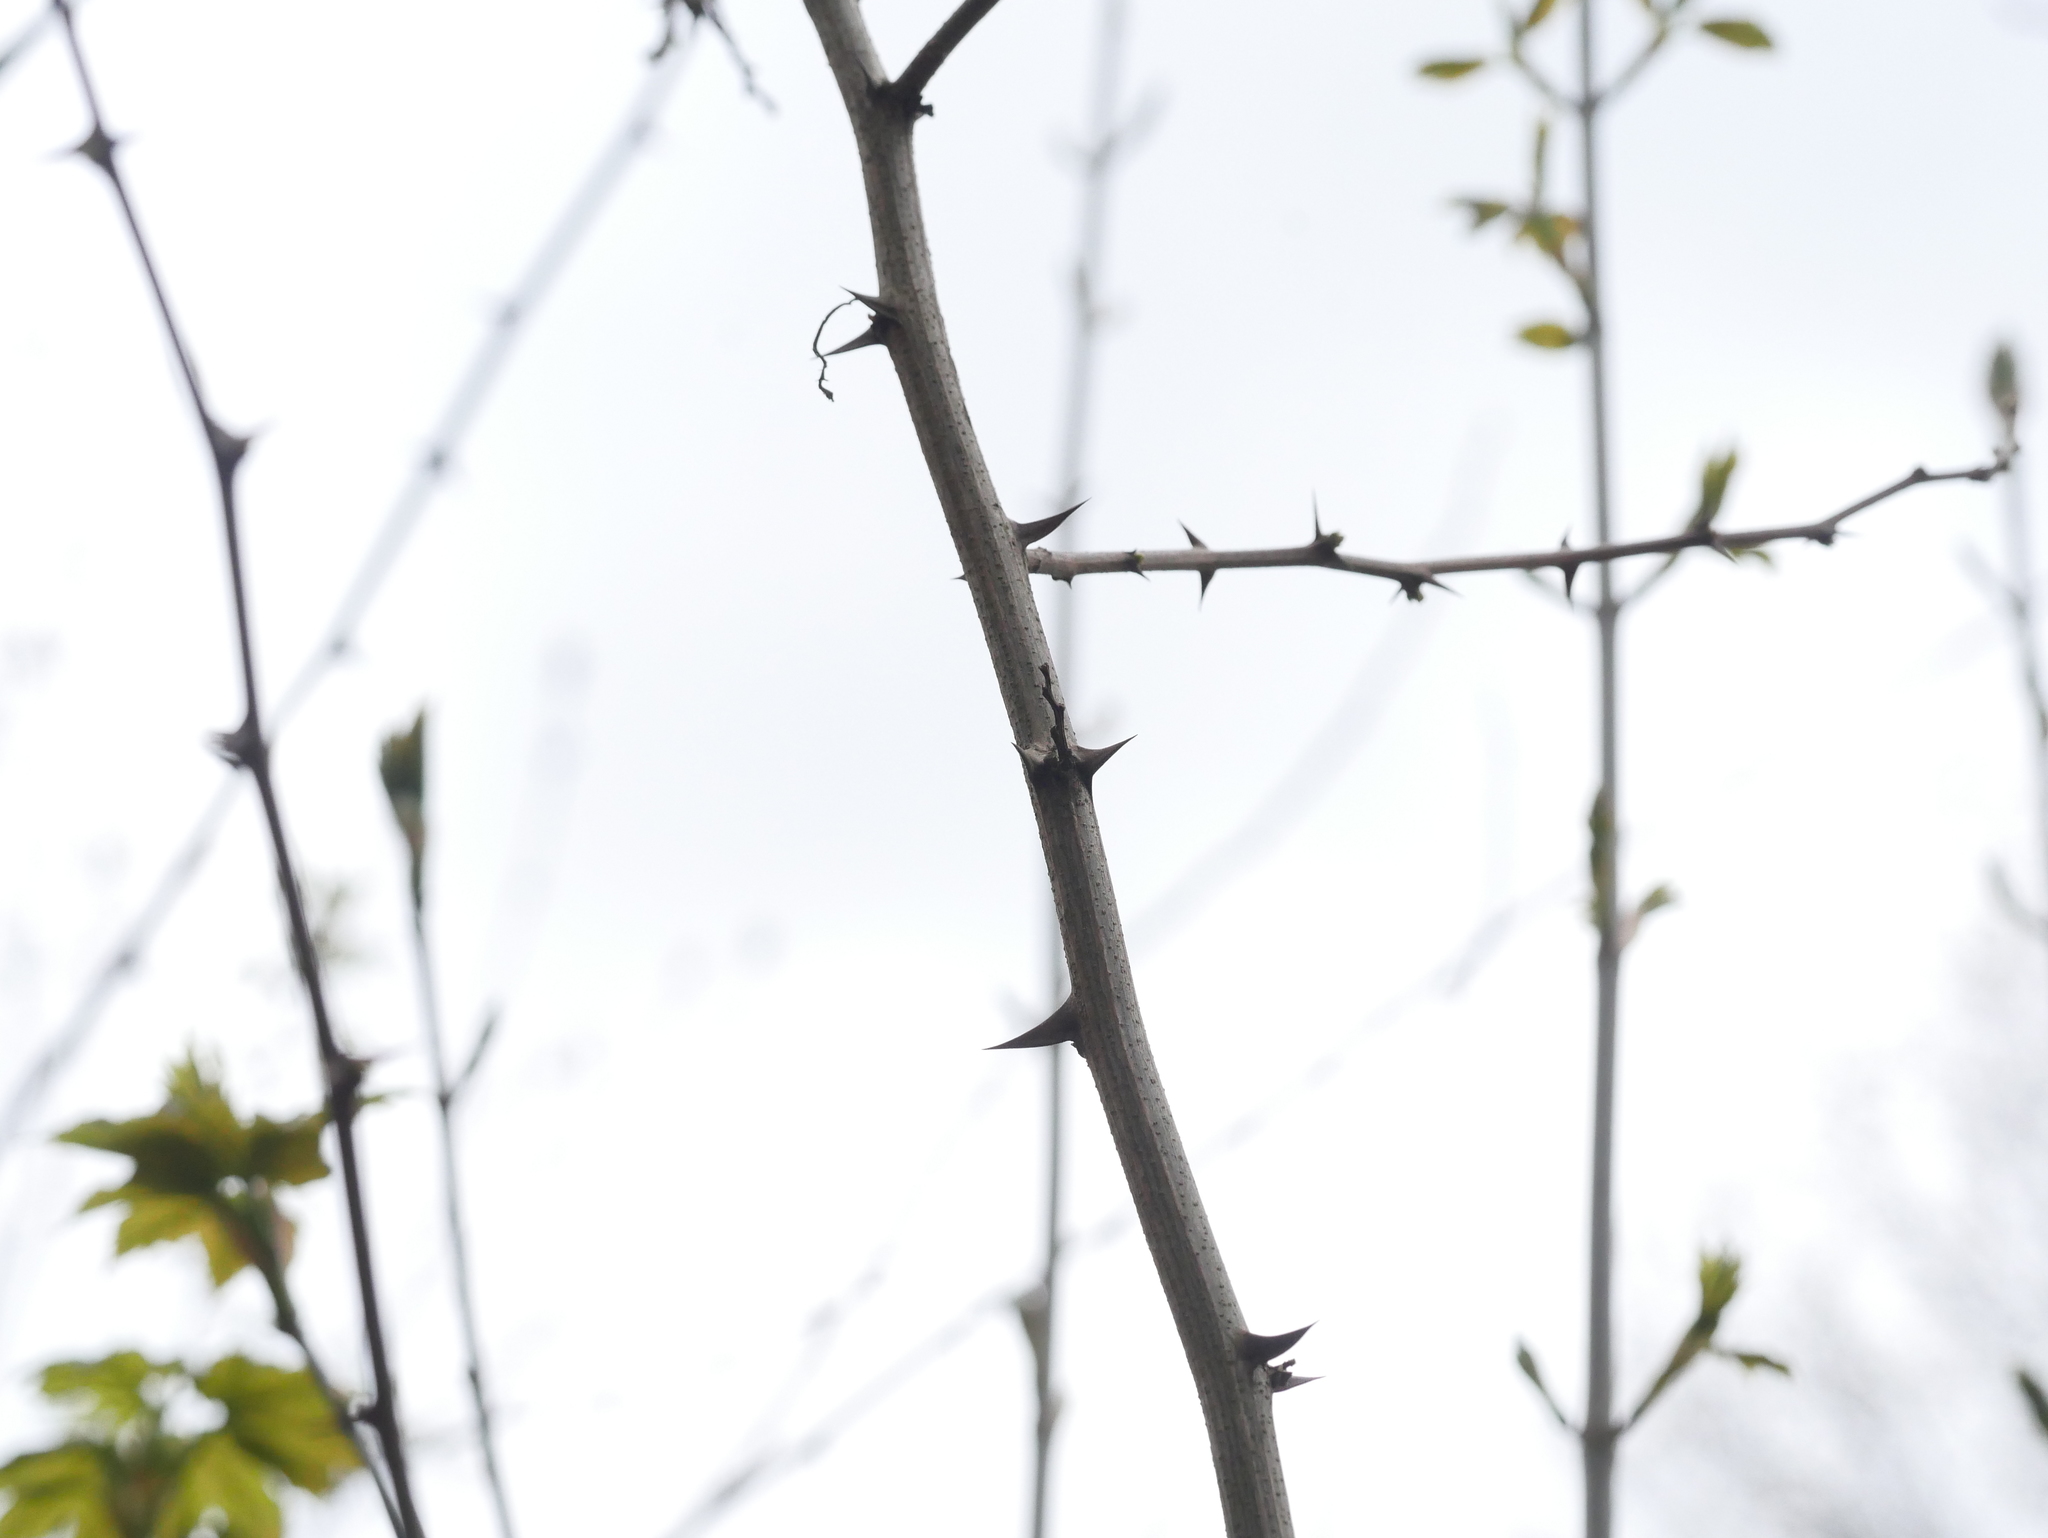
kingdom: Plantae
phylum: Tracheophyta
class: Magnoliopsida
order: Fabales
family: Fabaceae
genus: Robinia
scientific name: Robinia pseudoacacia
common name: Black locust
